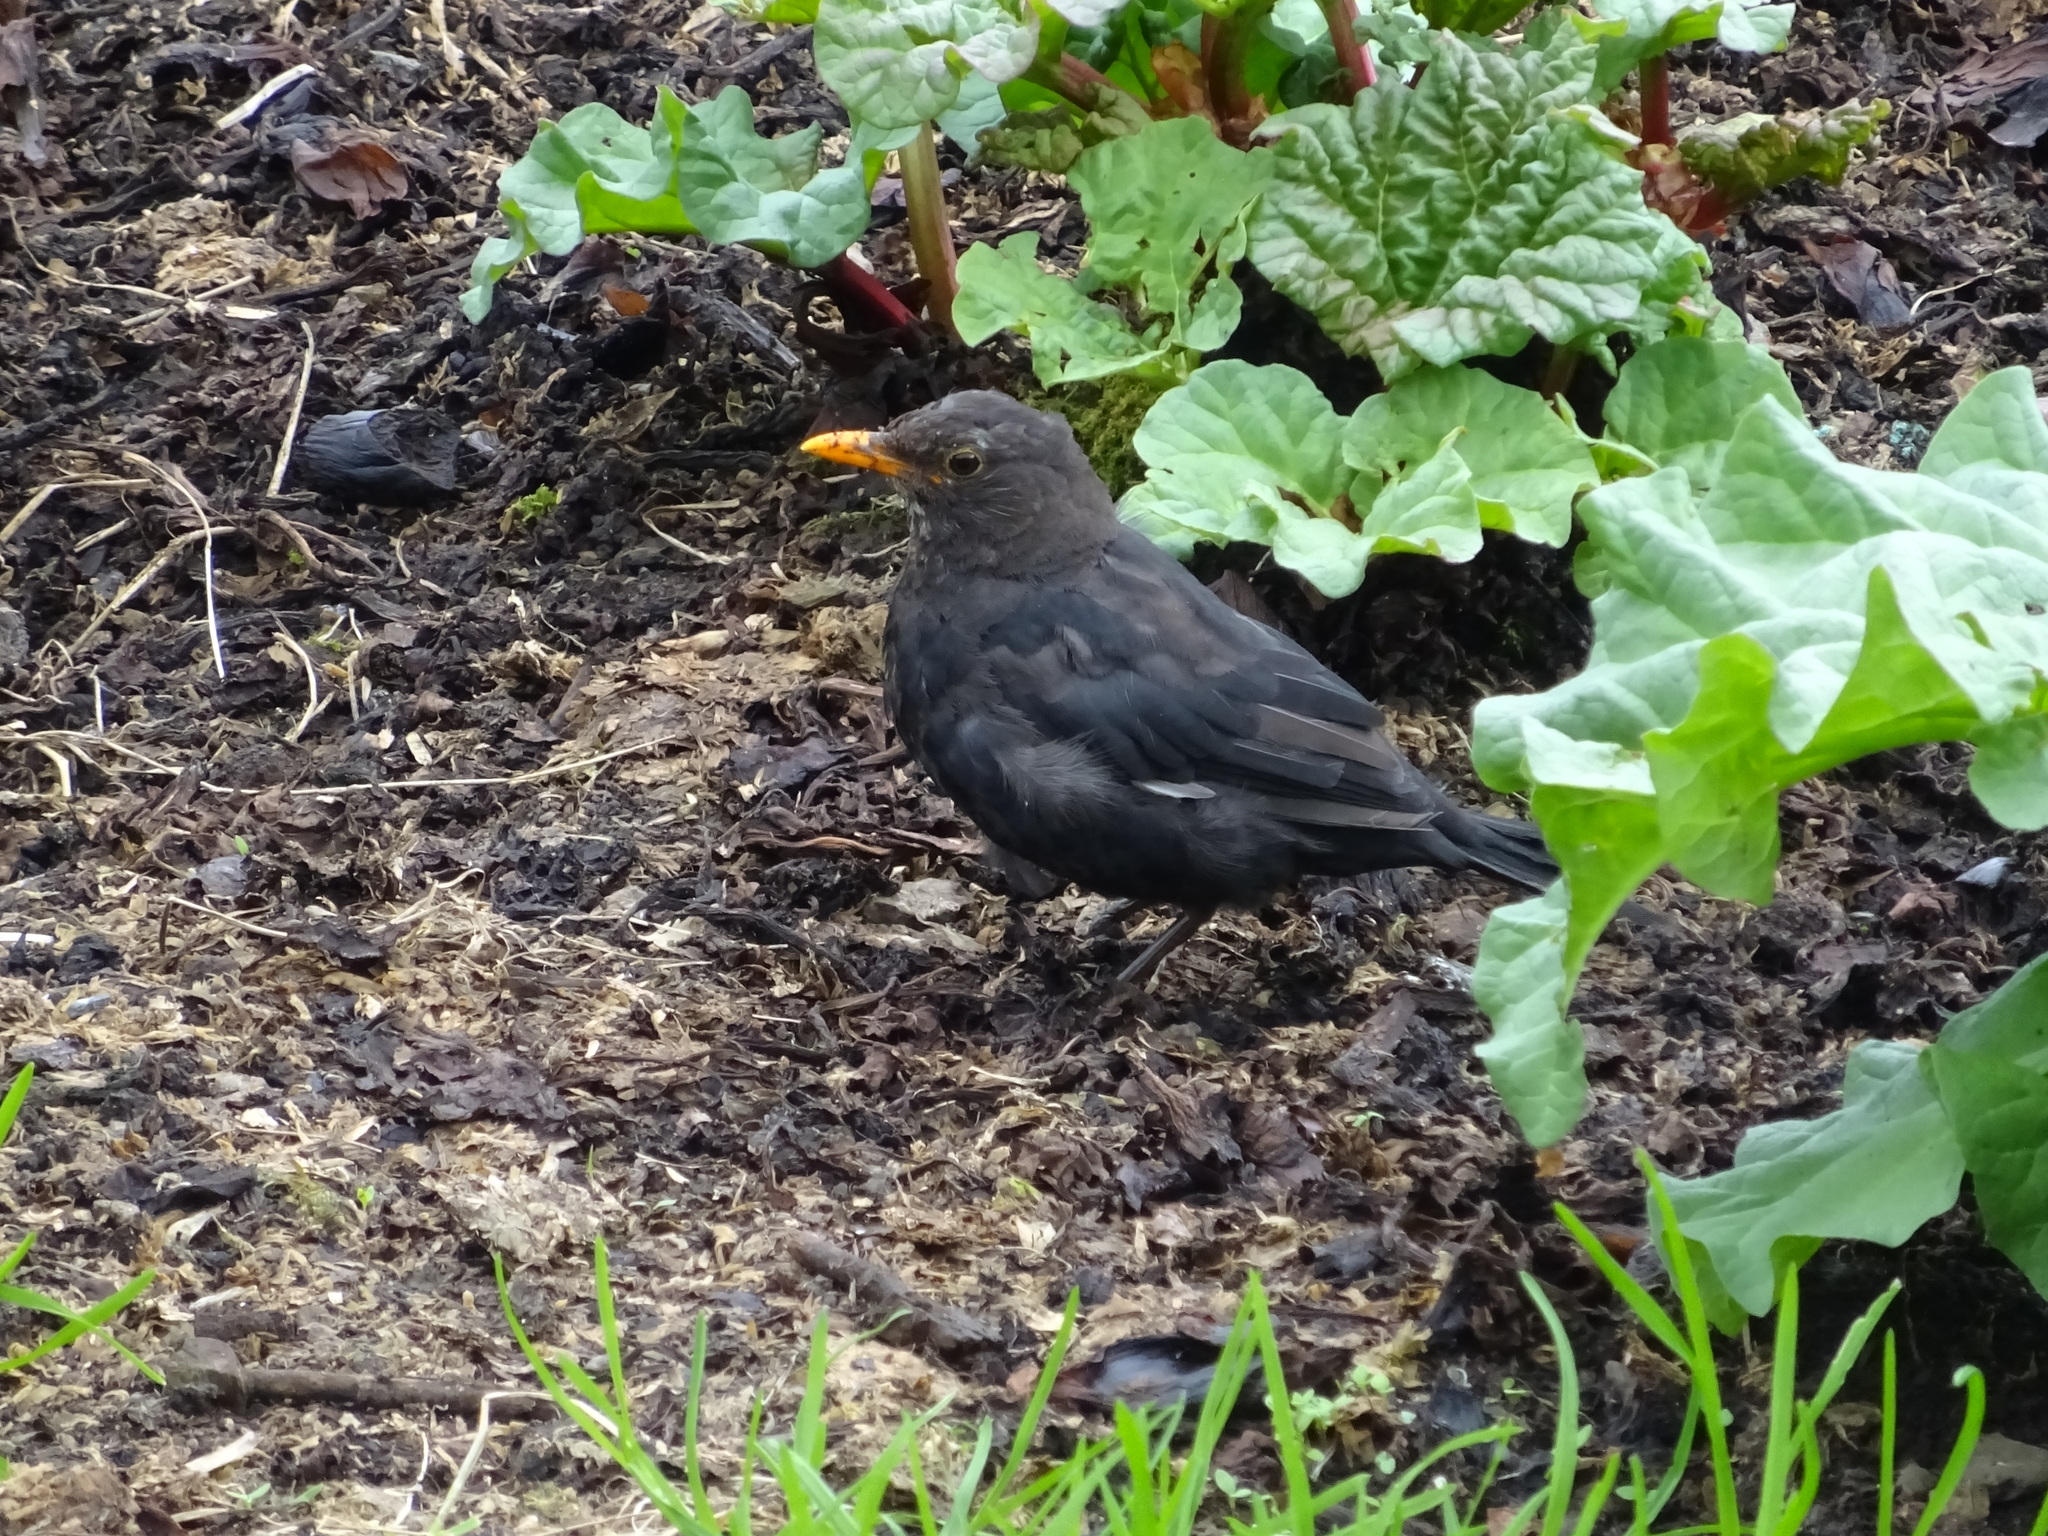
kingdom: Animalia
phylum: Chordata
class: Aves
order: Passeriformes
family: Turdidae
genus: Turdus
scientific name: Turdus merula
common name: Common blackbird
